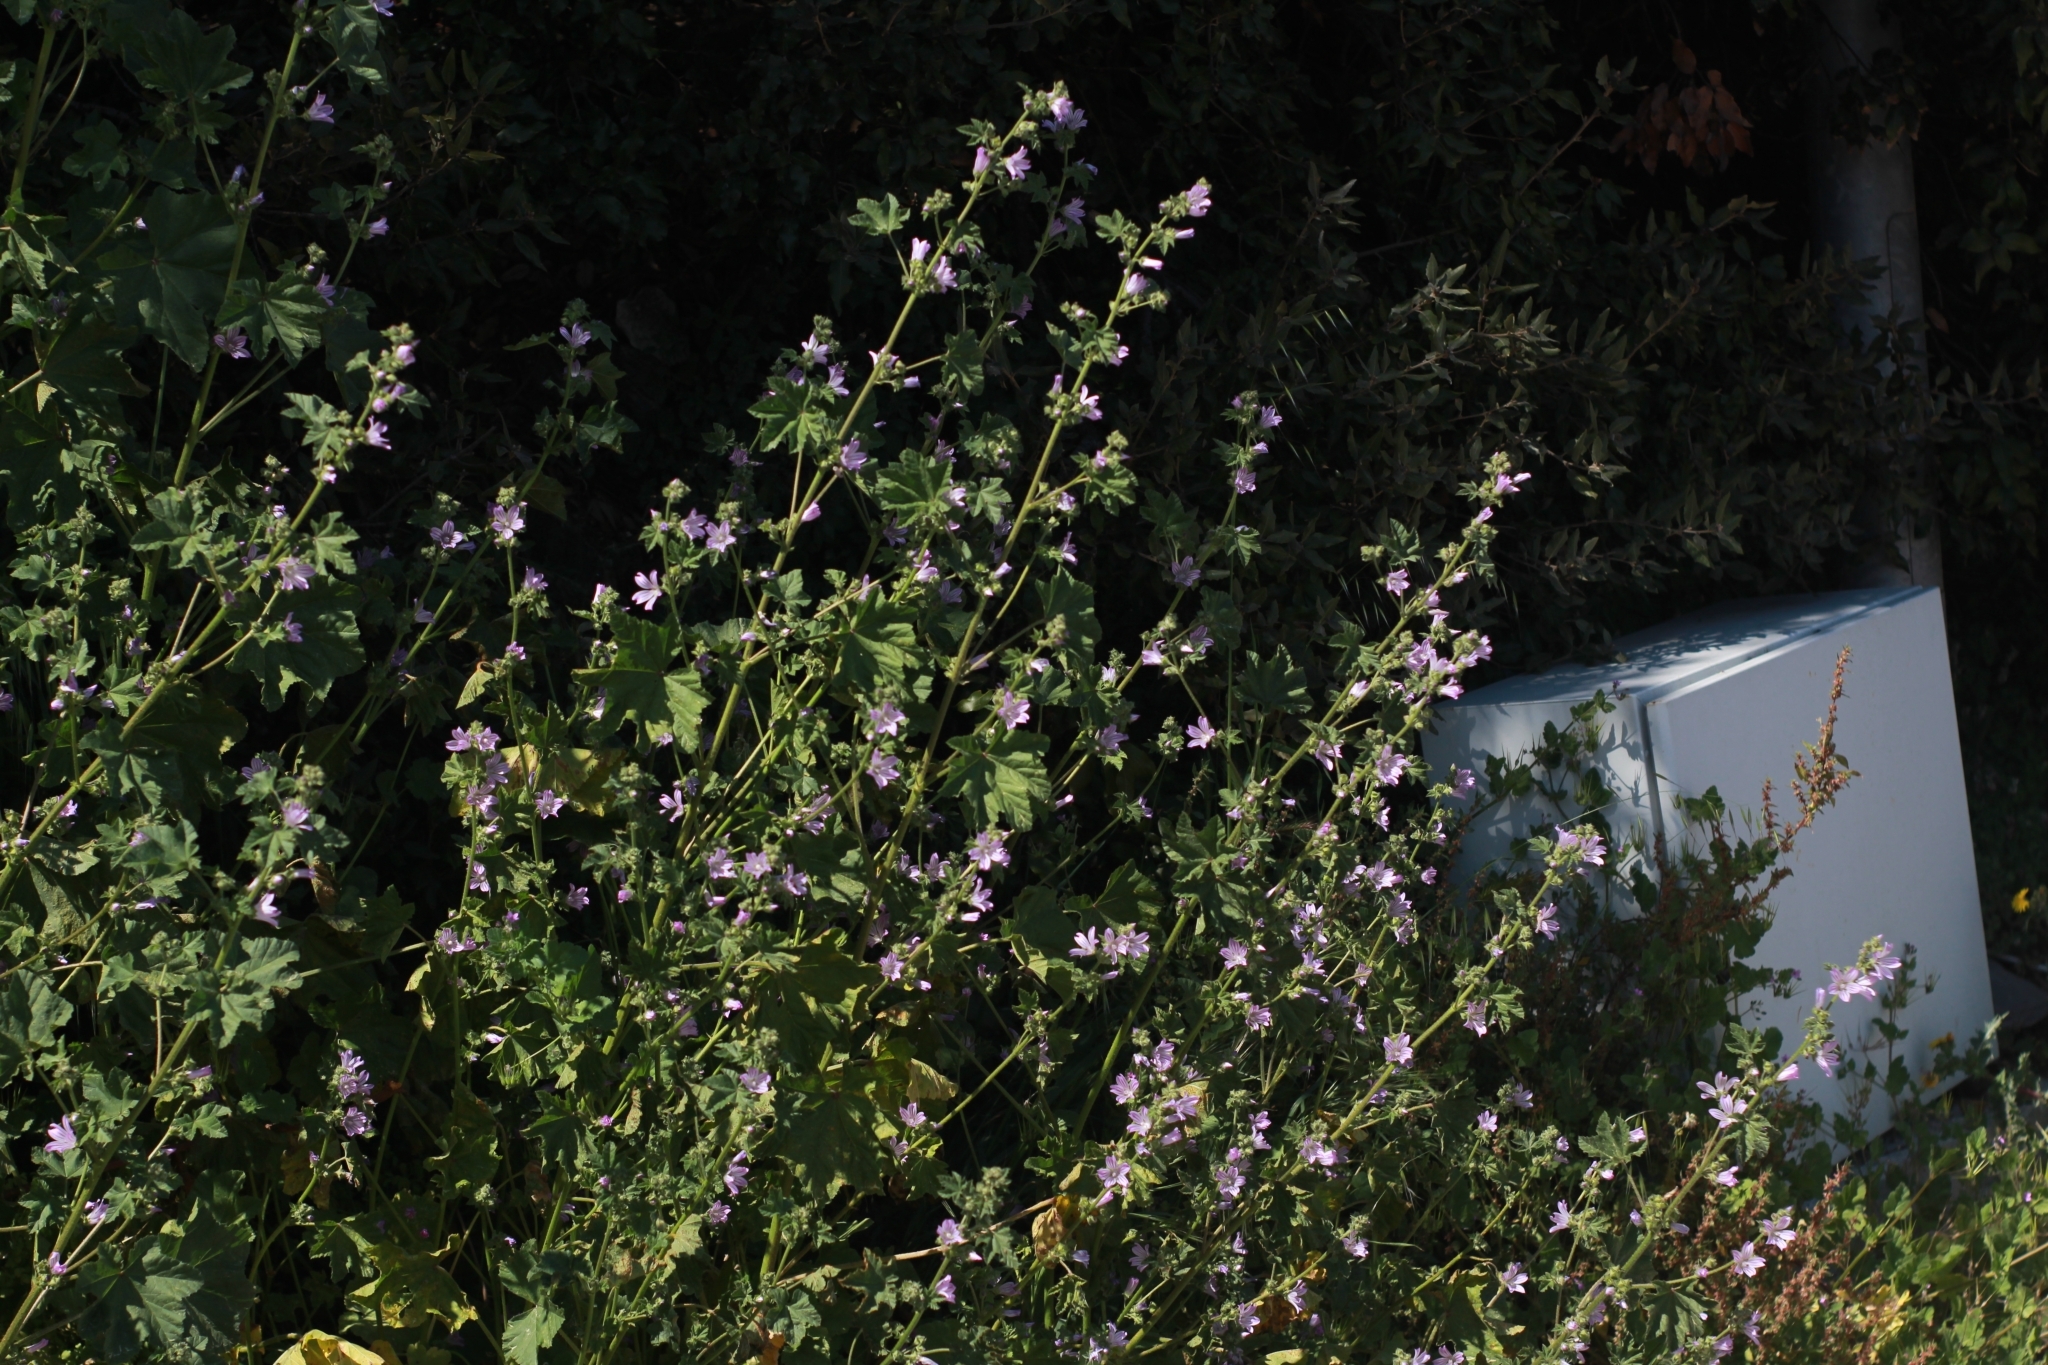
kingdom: Plantae
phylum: Tracheophyta
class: Magnoliopsida
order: Malvales
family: Malvaceae
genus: Malva
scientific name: Malva multiflora
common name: Cheeseweed
